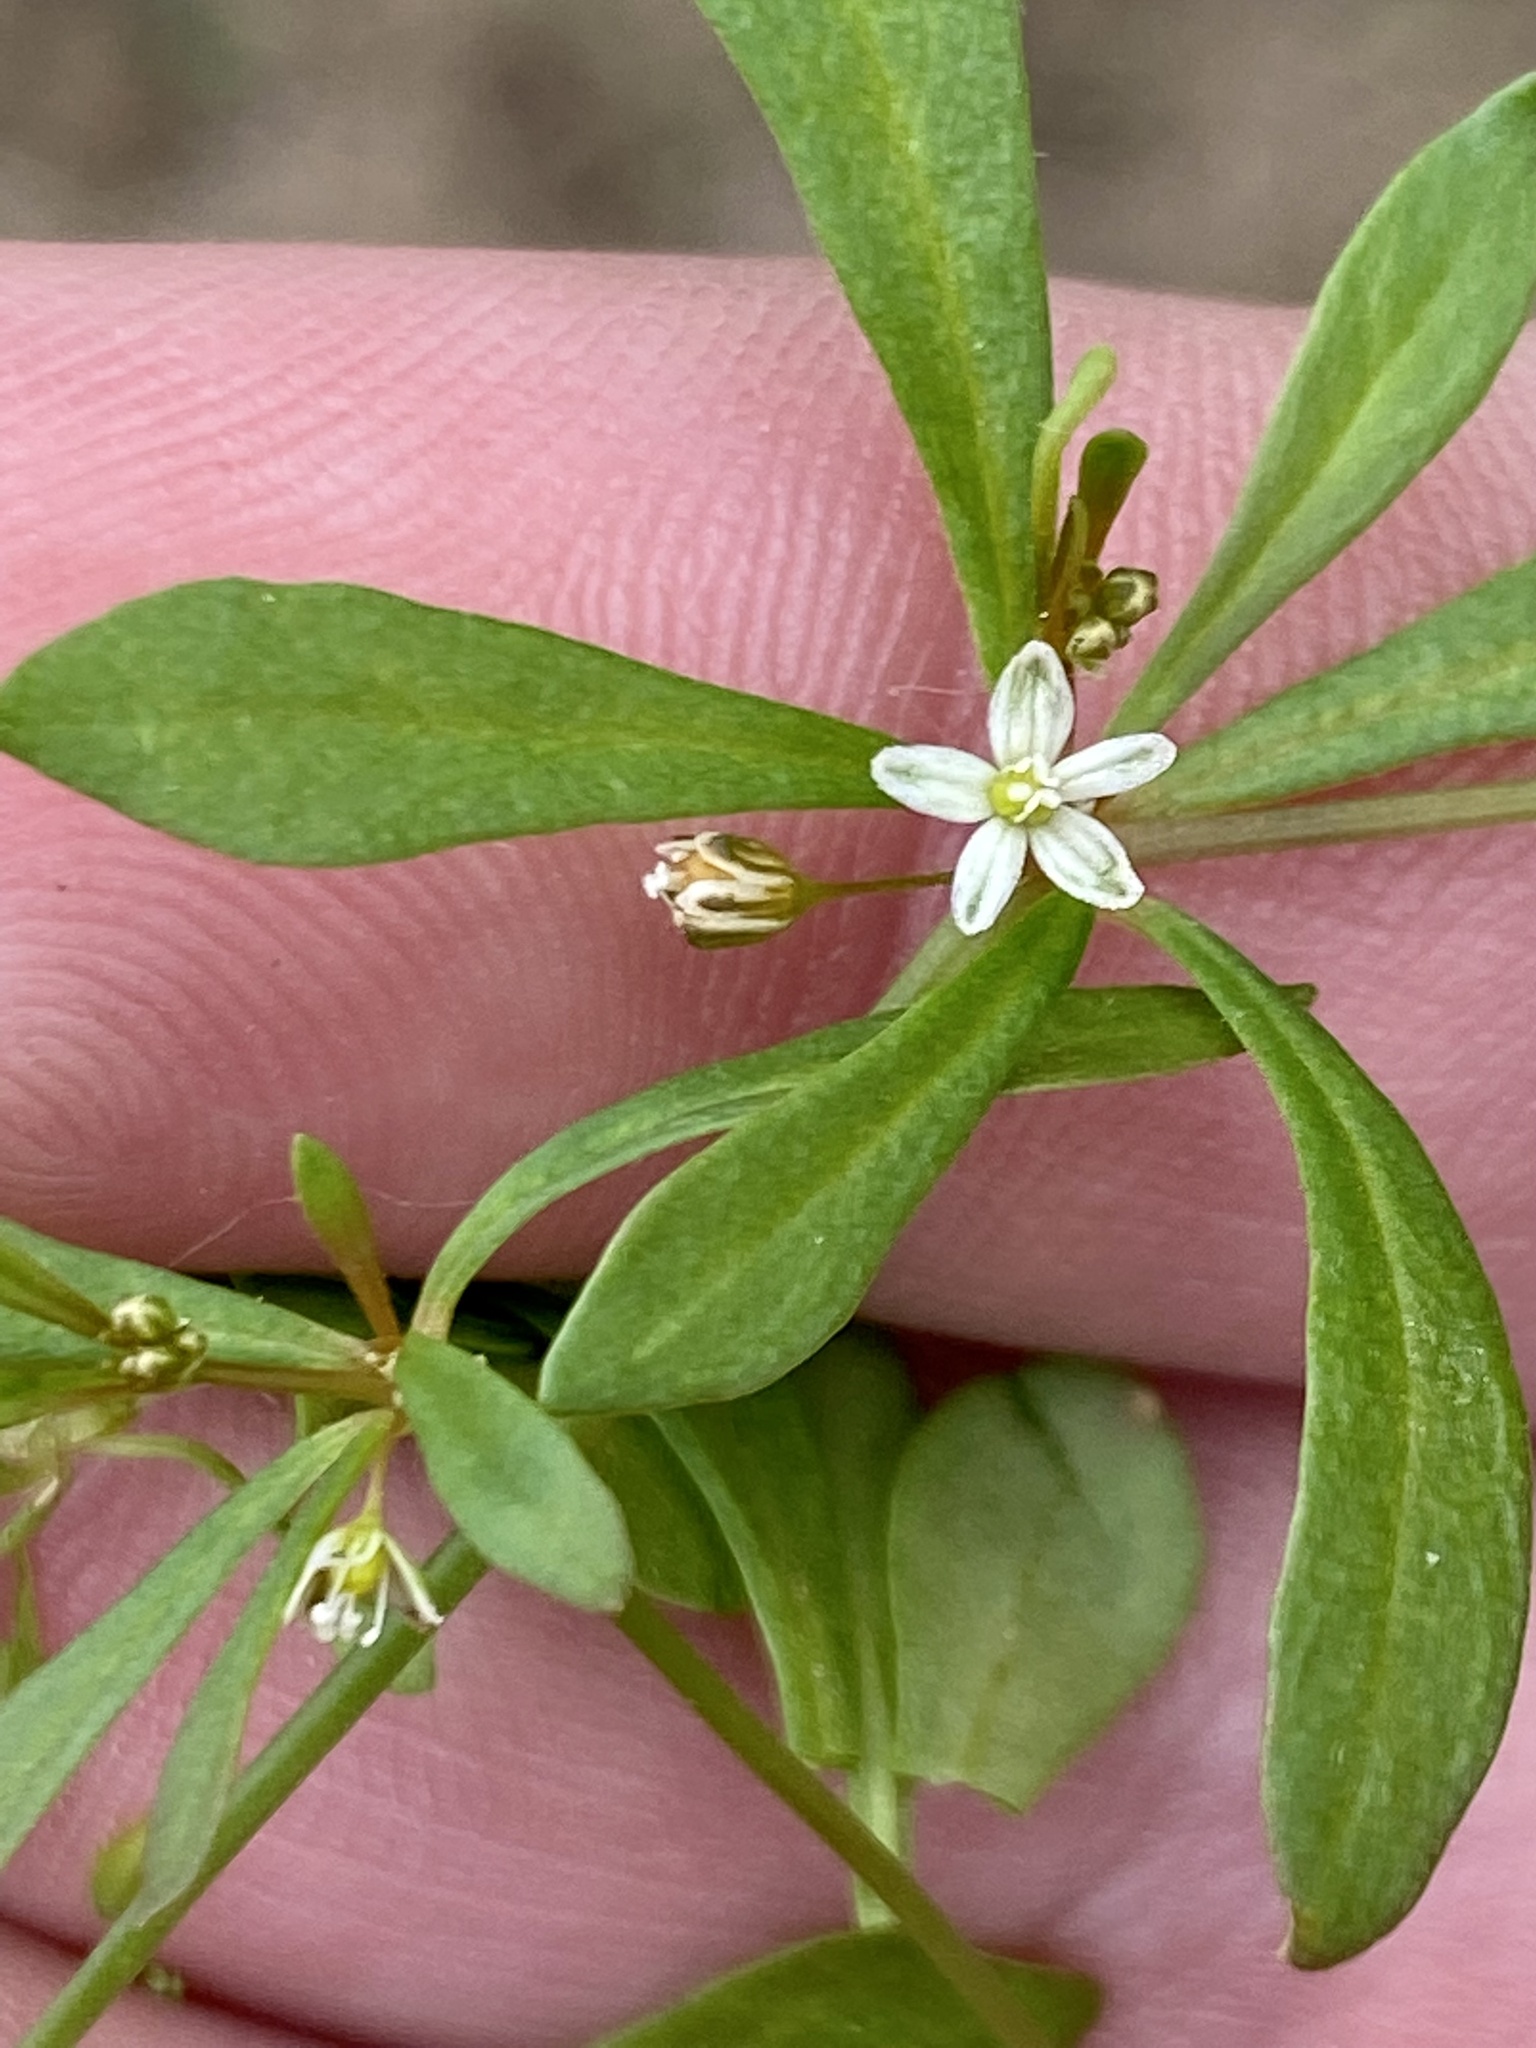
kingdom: Plantae
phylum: Tracheophyta
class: Magnoliopsida
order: Caryophyllales
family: Molluginaceae
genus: Mollugo
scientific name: Mollugo verticillata
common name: Green carpetweed
